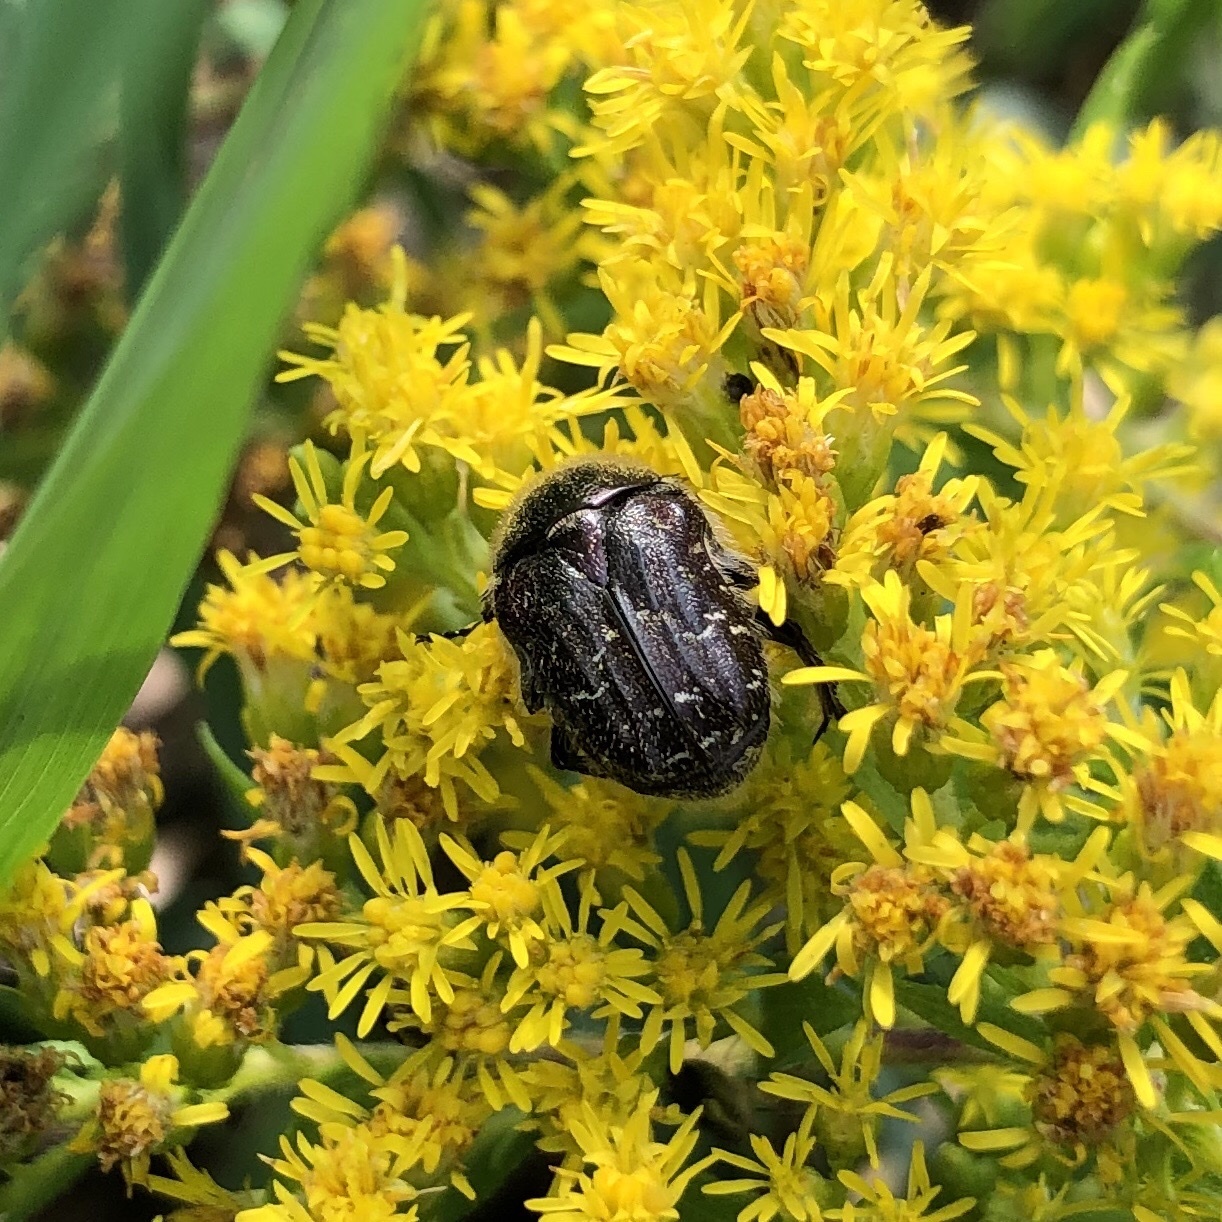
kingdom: Animalia
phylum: Arthropoda
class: Insecta
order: Coleoptera
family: Scarabaeidae
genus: Euphoria
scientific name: Euphoria sepulcralis
